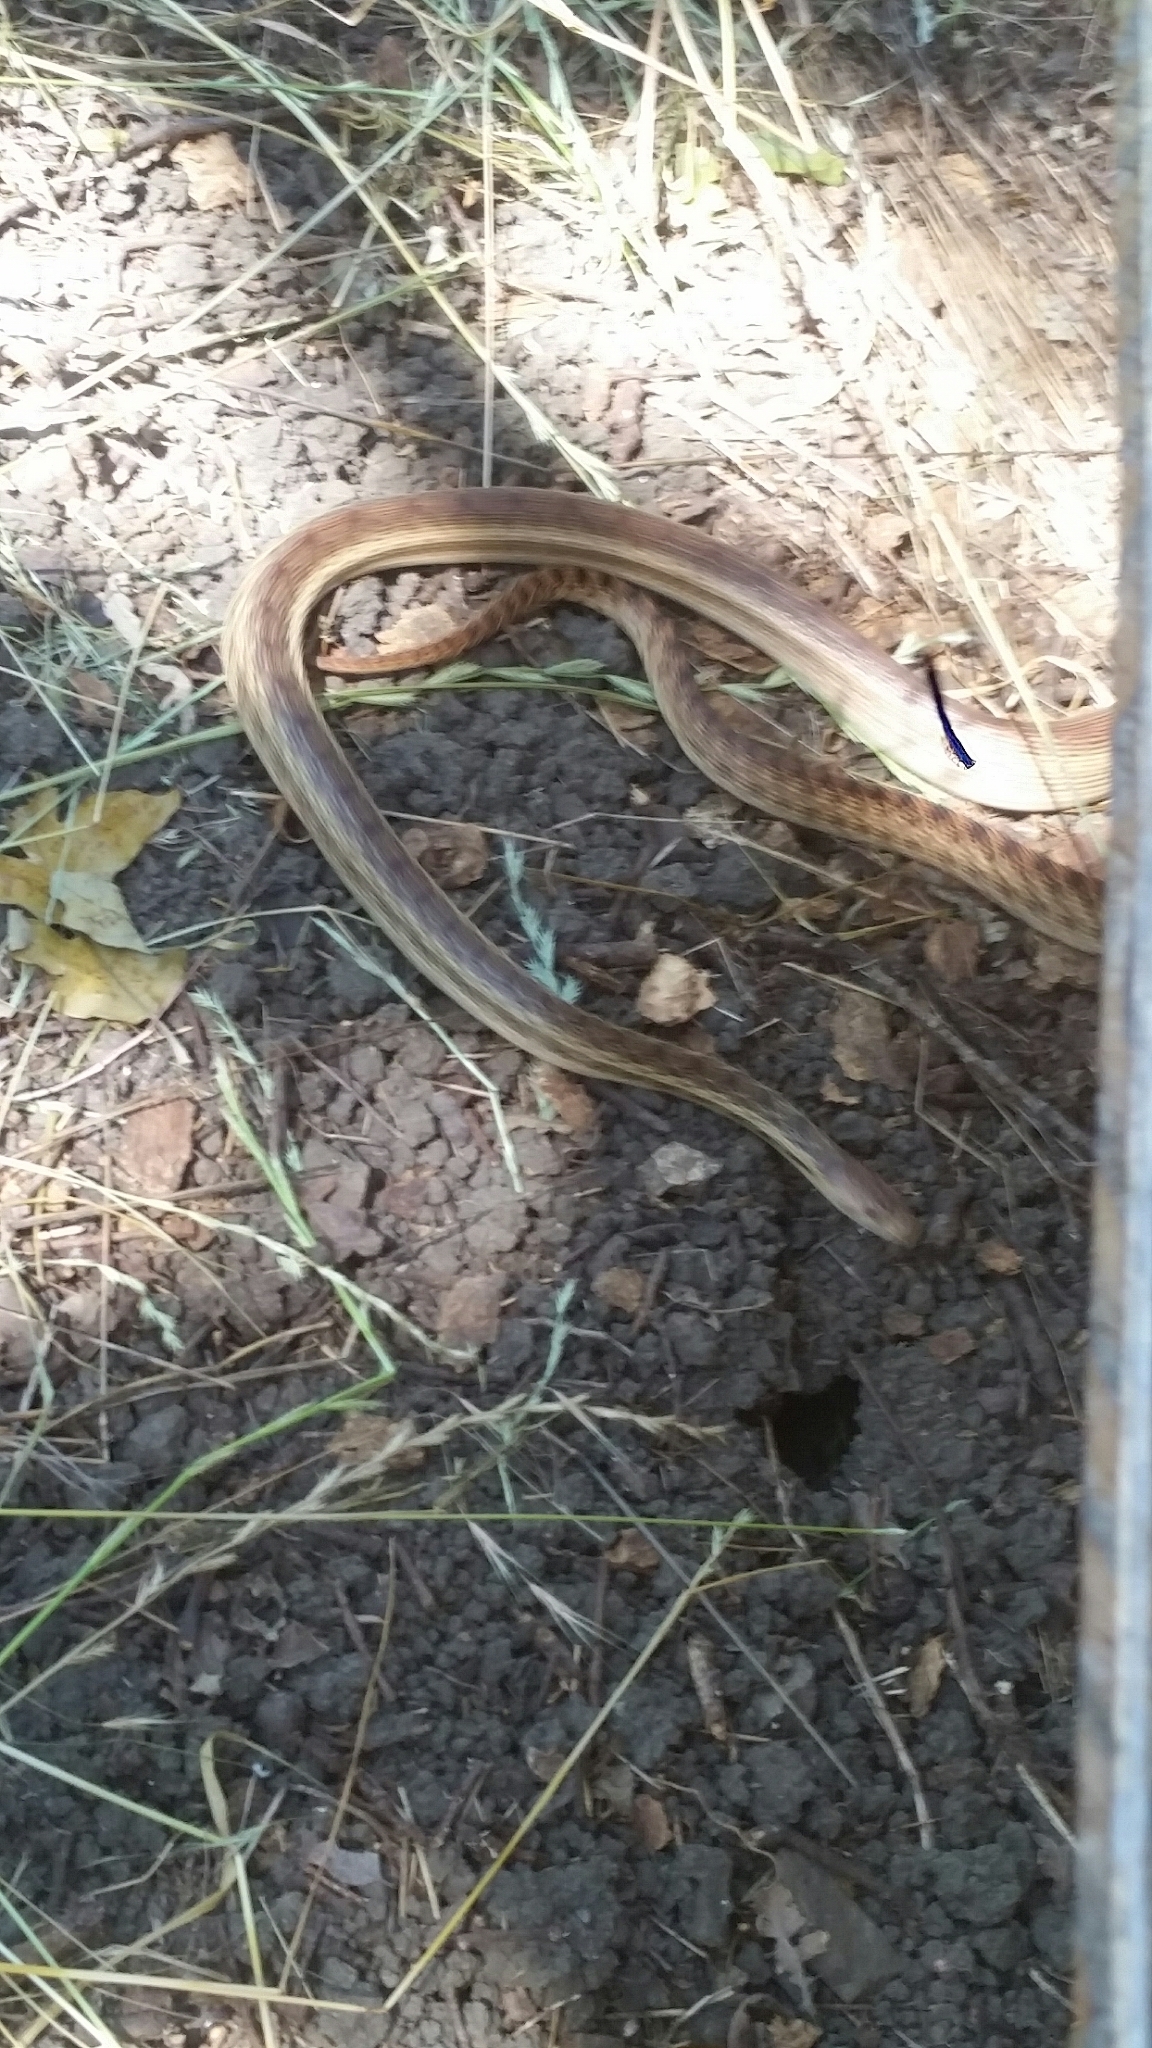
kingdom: Animalia
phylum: Chordata
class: Squamata
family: Colubridae
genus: Pituophis
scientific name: Pituophis catenifer
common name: Gopher snake
